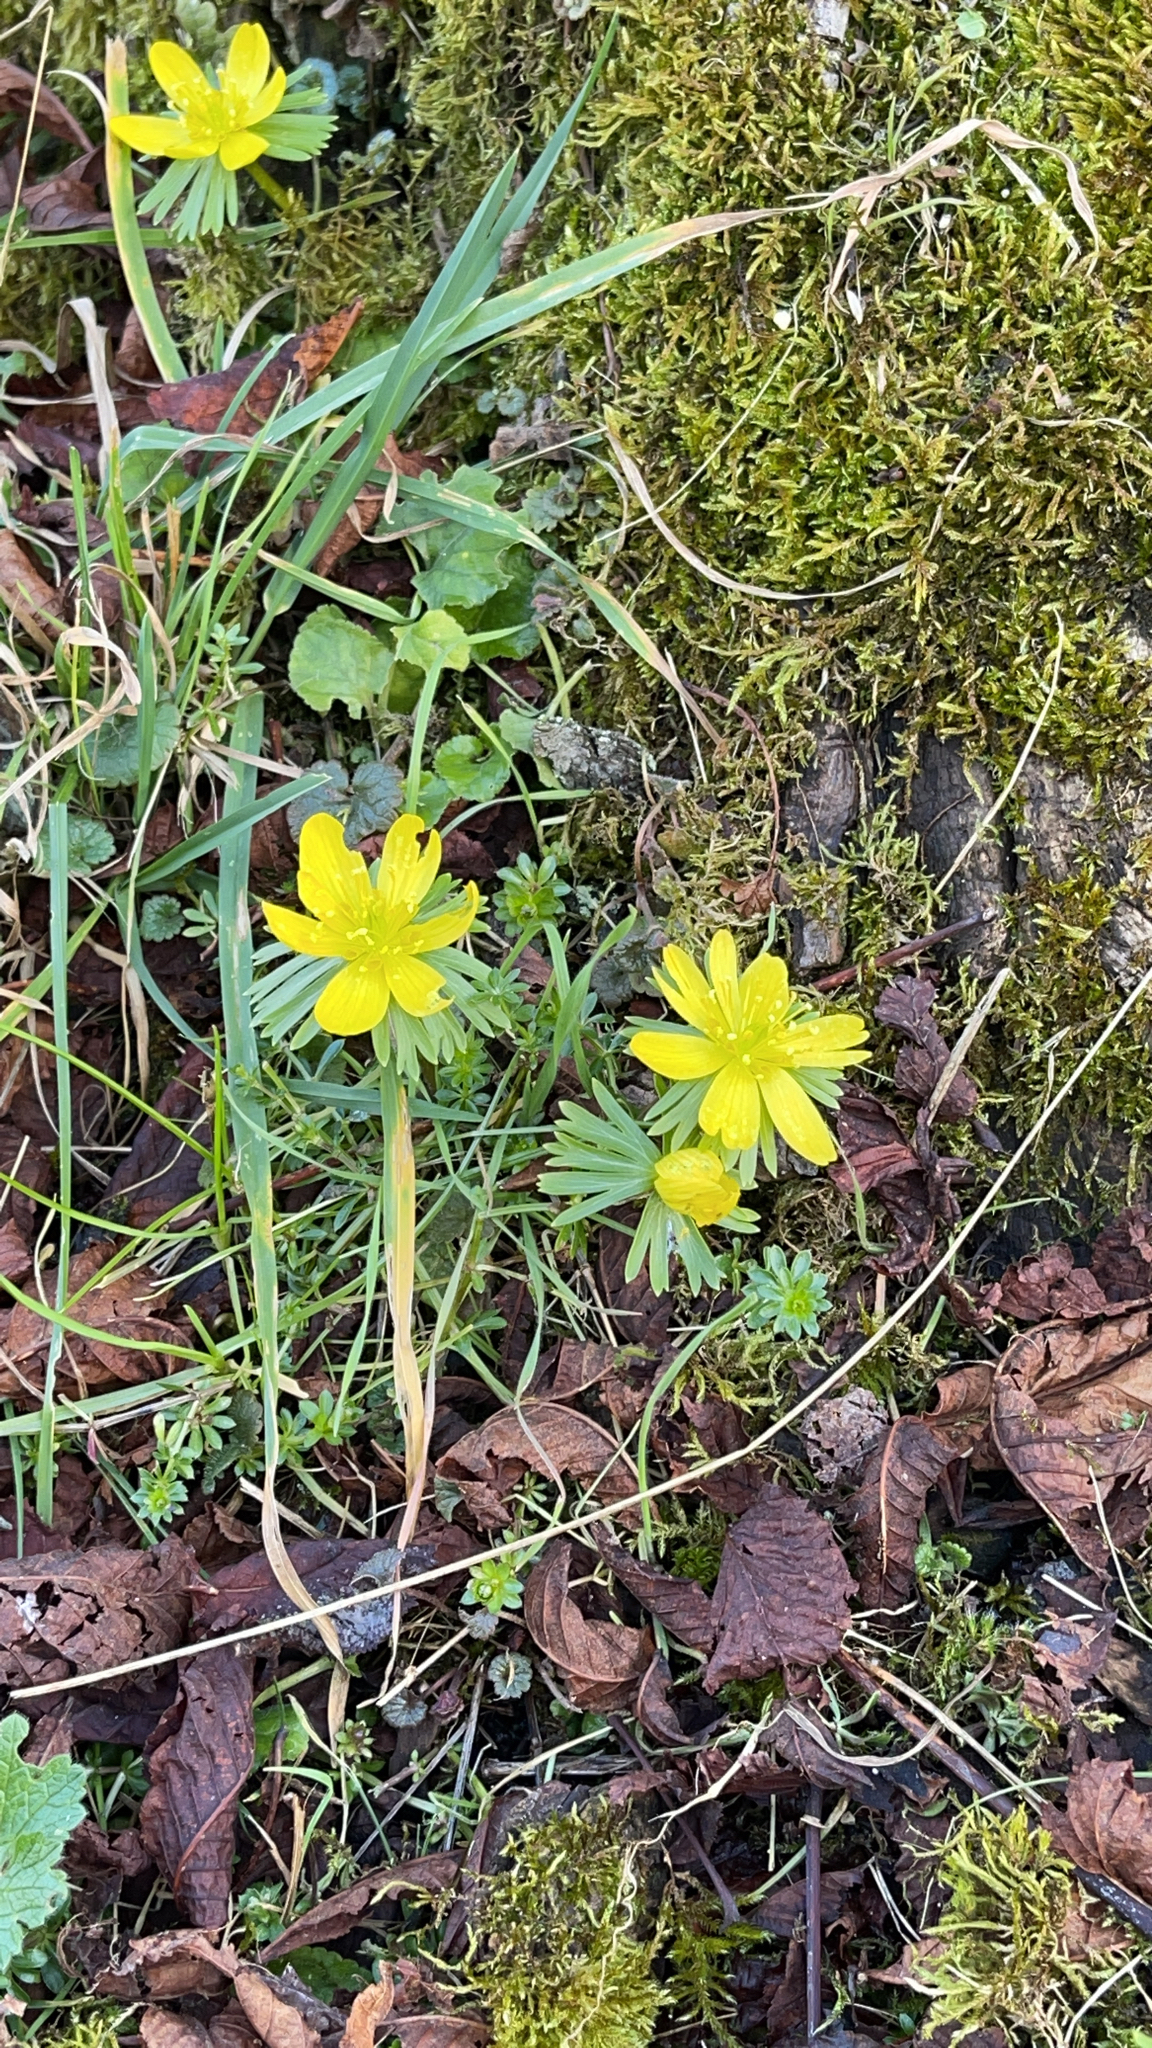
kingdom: Plantae
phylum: Tracheophyta
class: Magnoliopsida
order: Ranunculales
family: Ranunculaceae
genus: Eranthis
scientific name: Eranthis hyemalis
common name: Winter aconite
